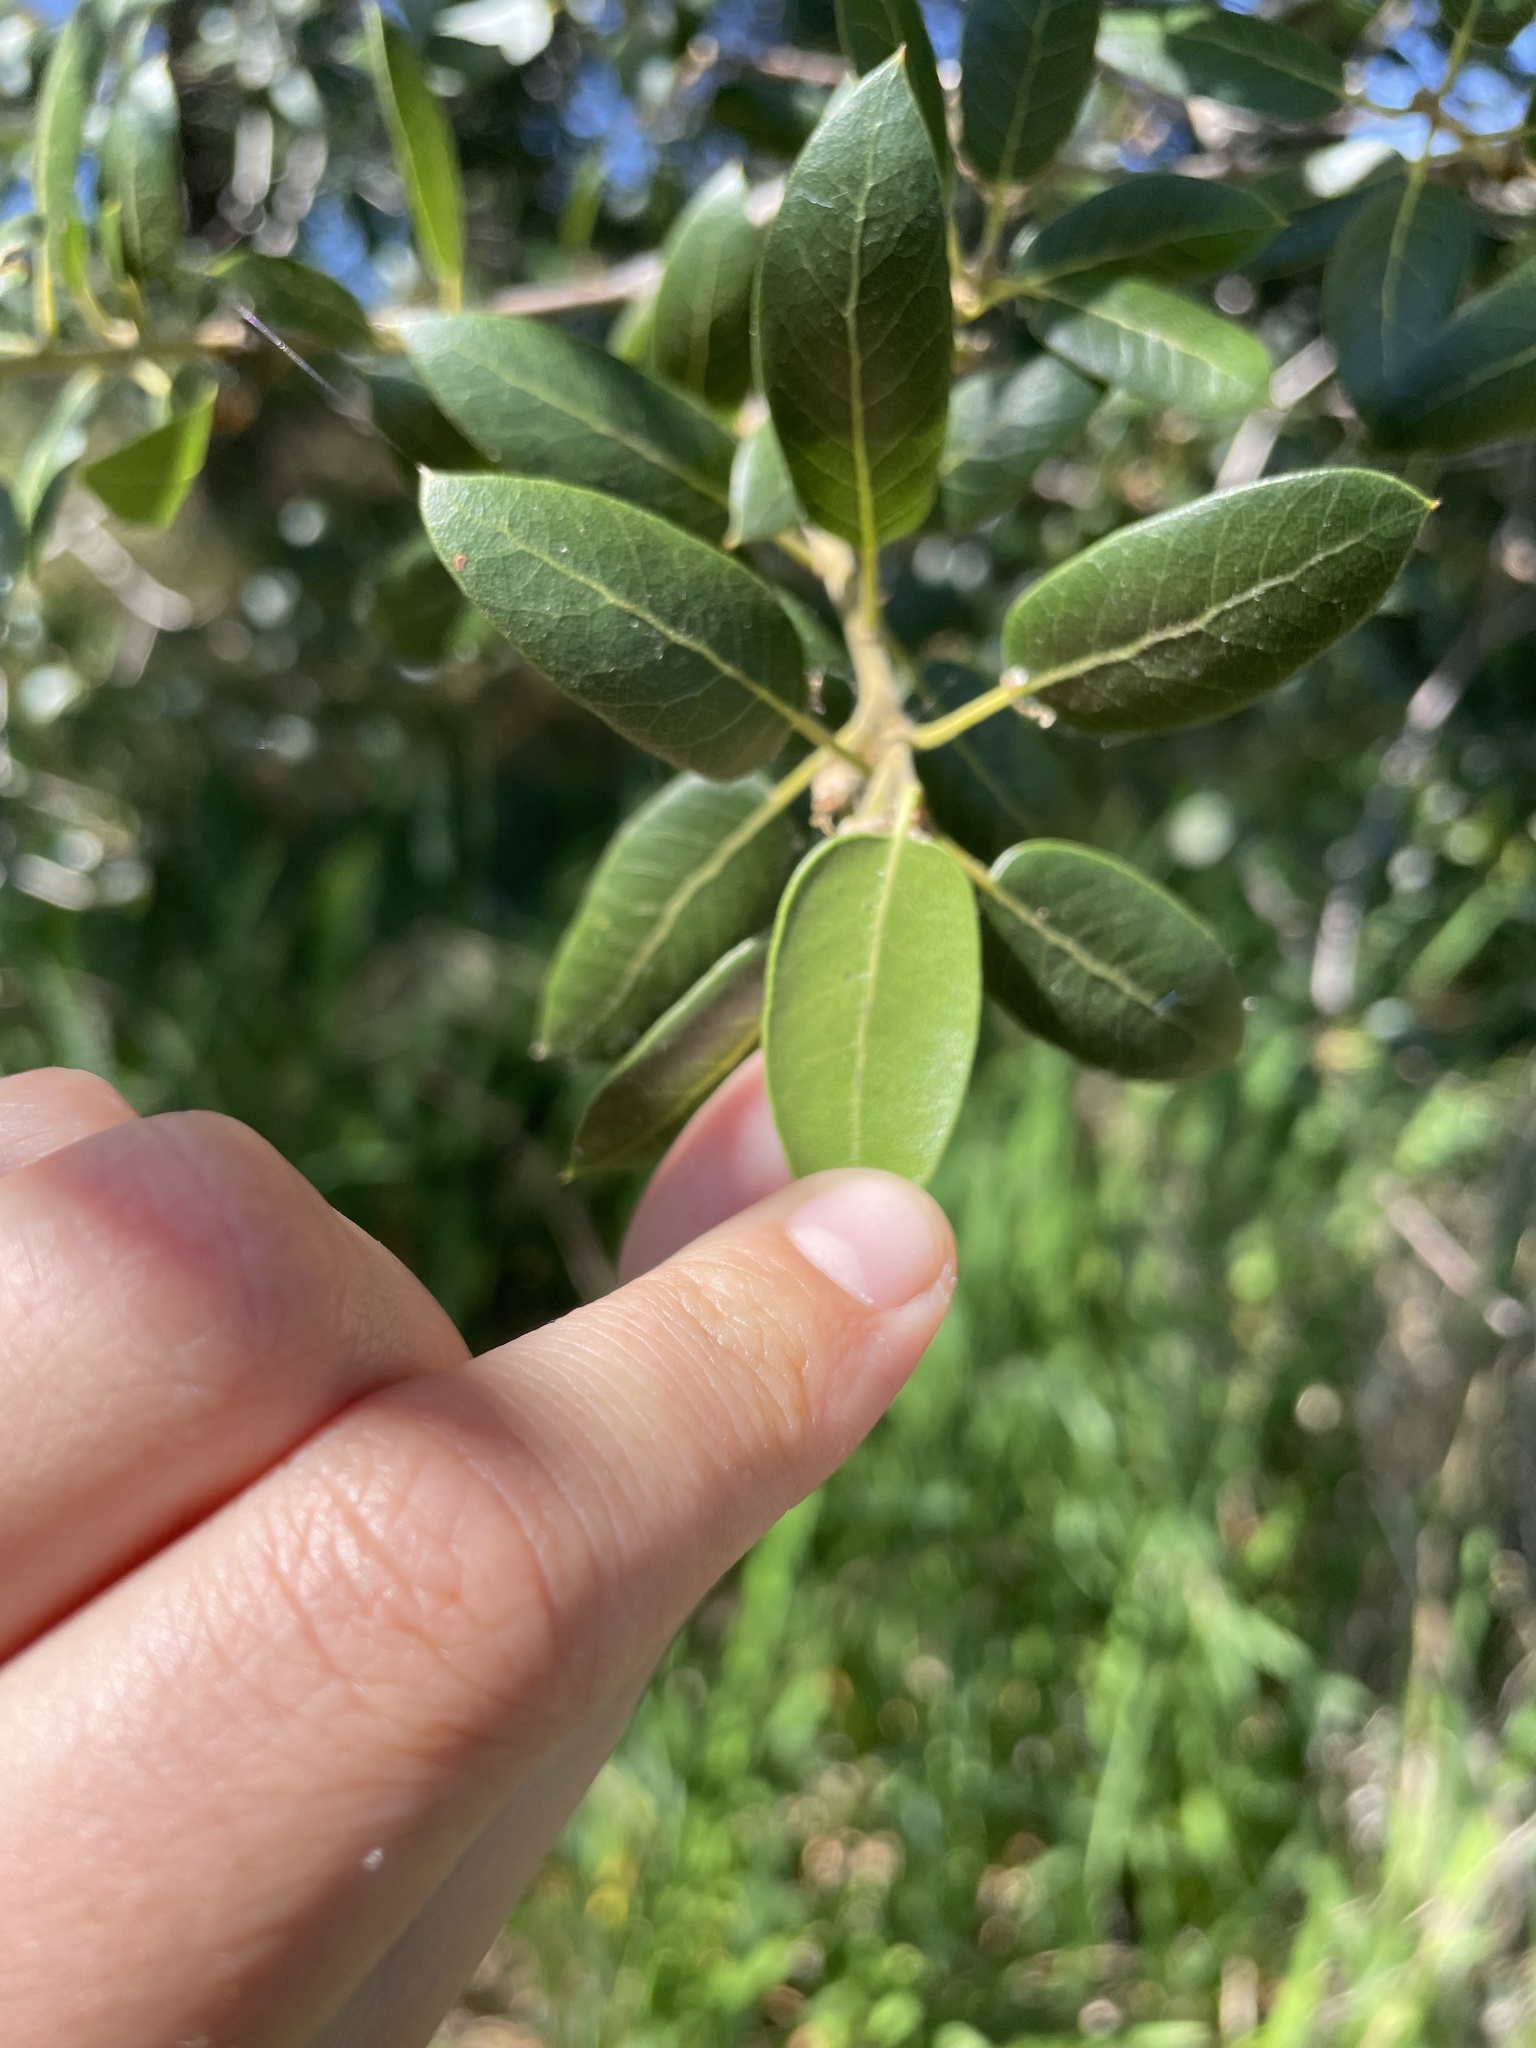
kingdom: Plantae
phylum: Tracheophyta
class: Magnoliopsida
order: Fagales
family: Fagaceae
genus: Quercus
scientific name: Quercus wislizeni
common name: Interior live oak
